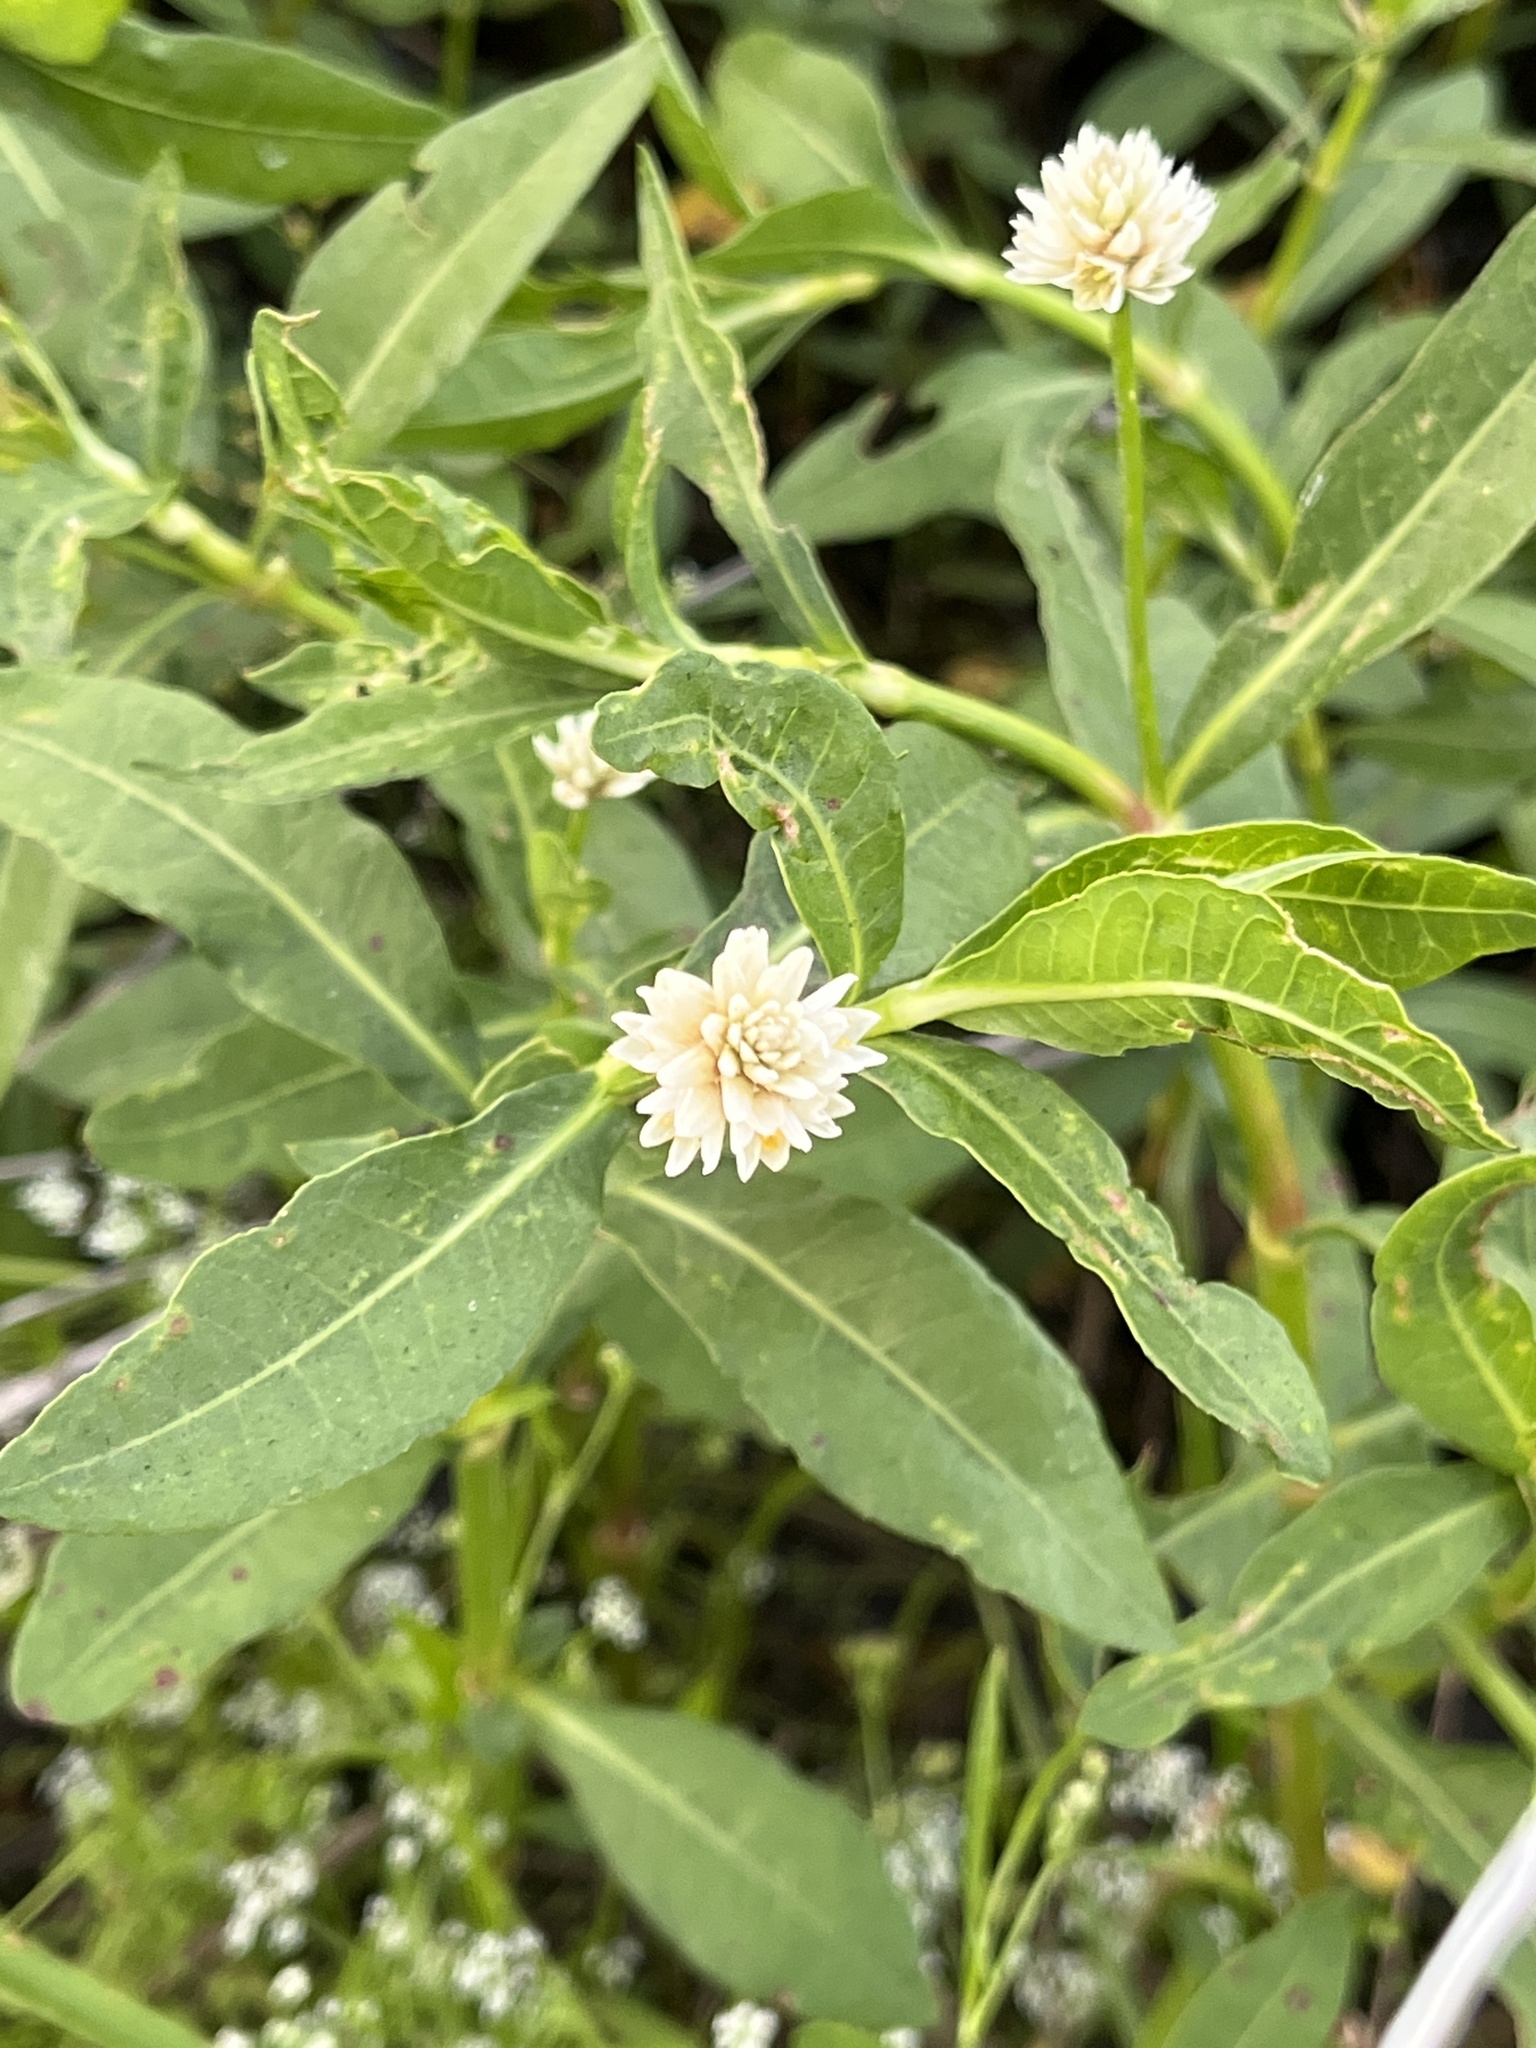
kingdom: Plantae
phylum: Tracheophyta
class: Magnoliopsida
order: Caryophyllales
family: Amaranthaceae
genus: Alternanthera
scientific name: Alternanthera philoxeroides
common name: Alligatorweed
